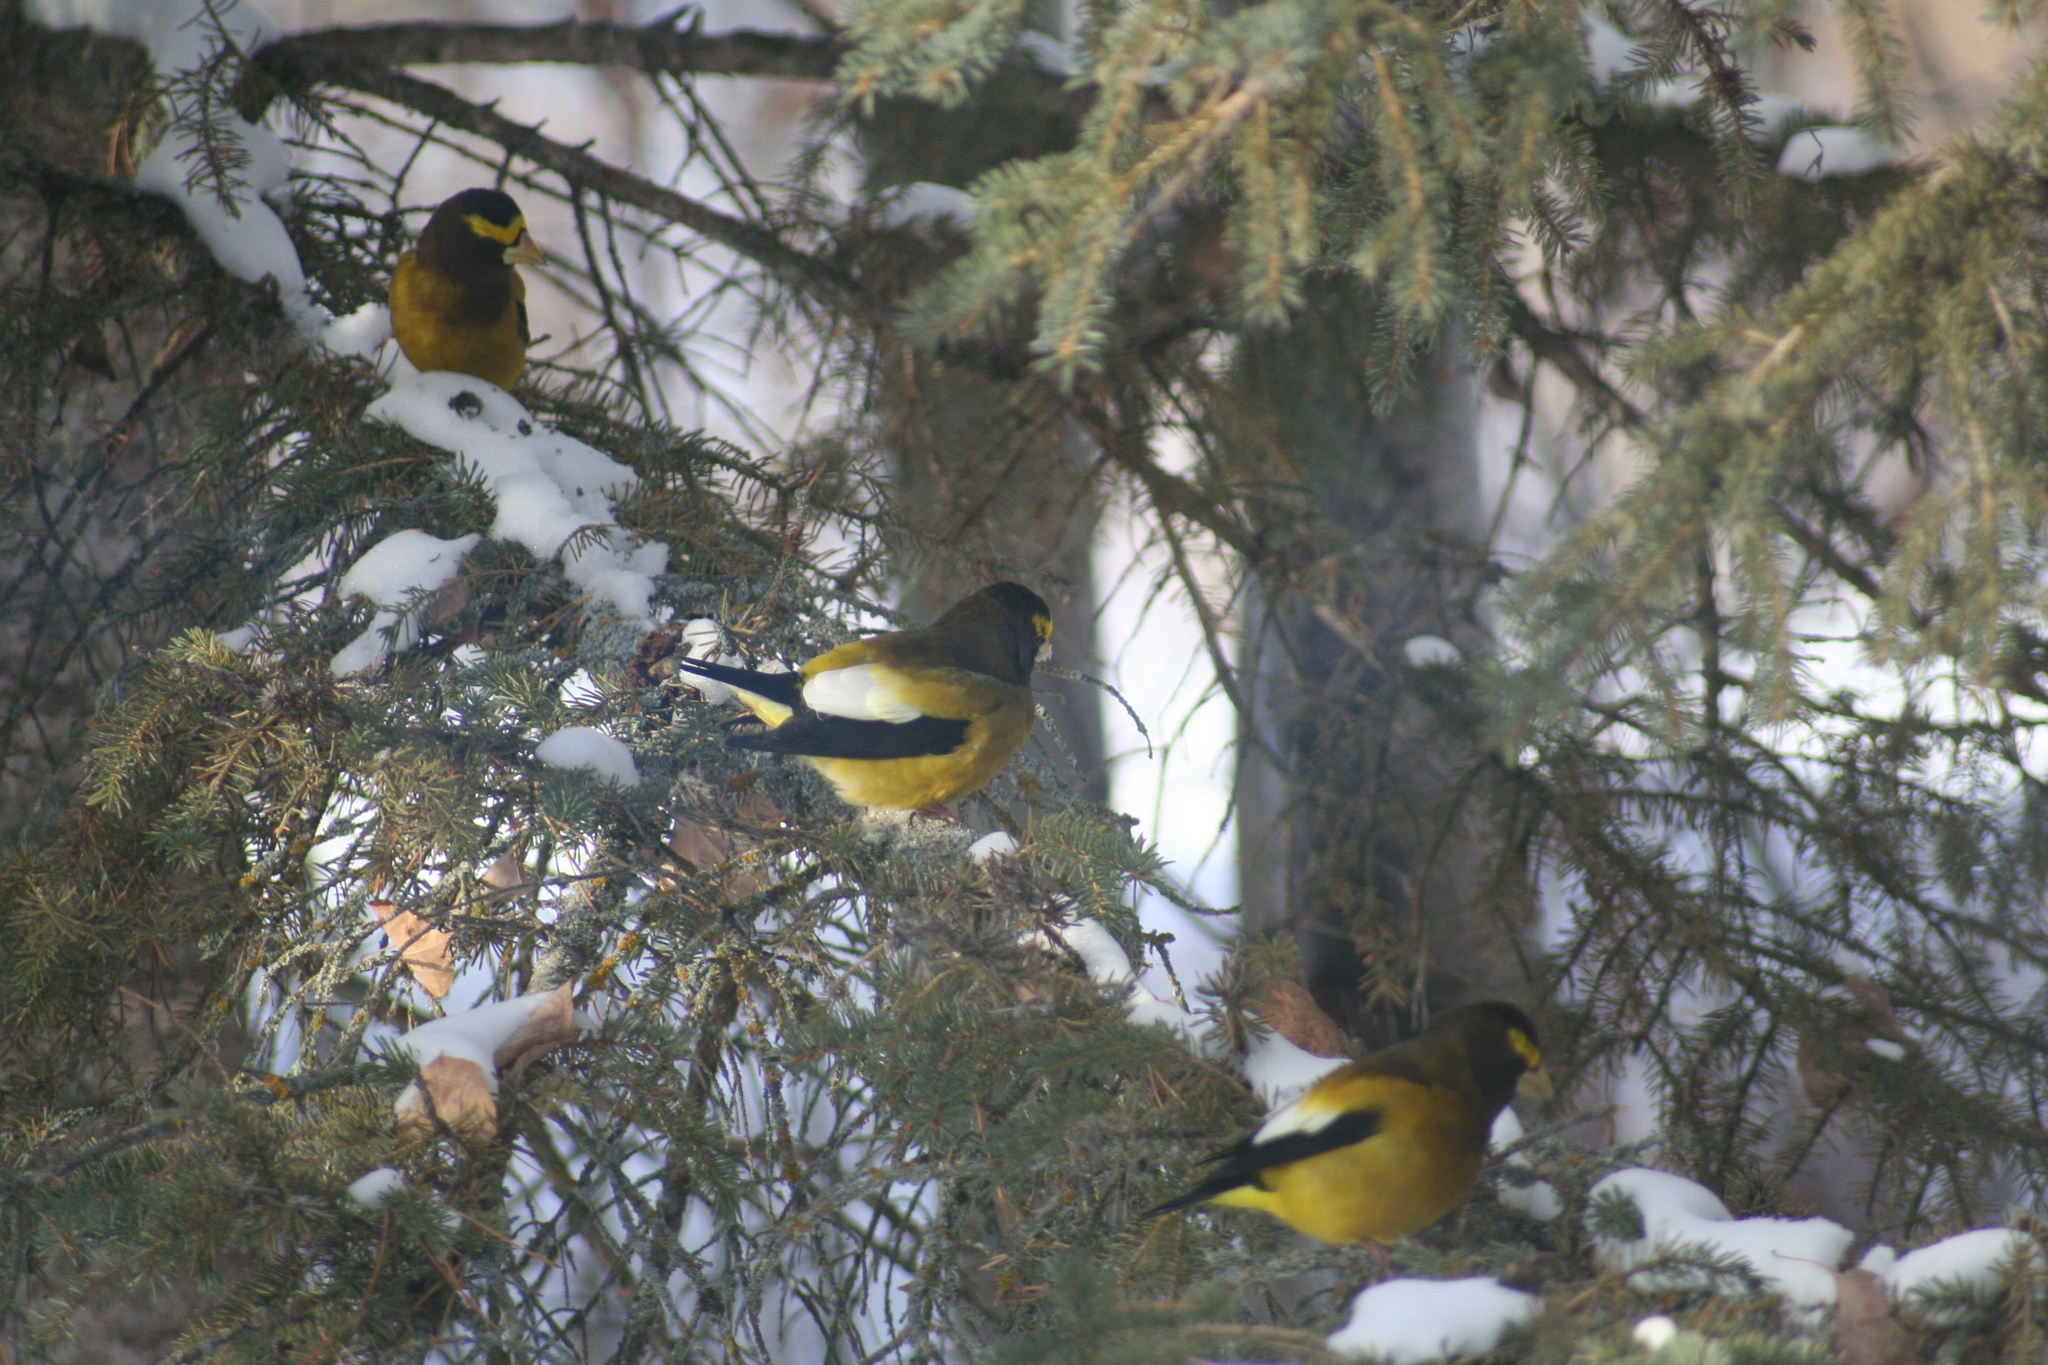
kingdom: Animalia
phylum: Chordata
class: Aves
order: Passeriformes
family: Fringillidae
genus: Hesperiphona
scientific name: Hesperiphona vespertina
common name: Evening grosbeak
